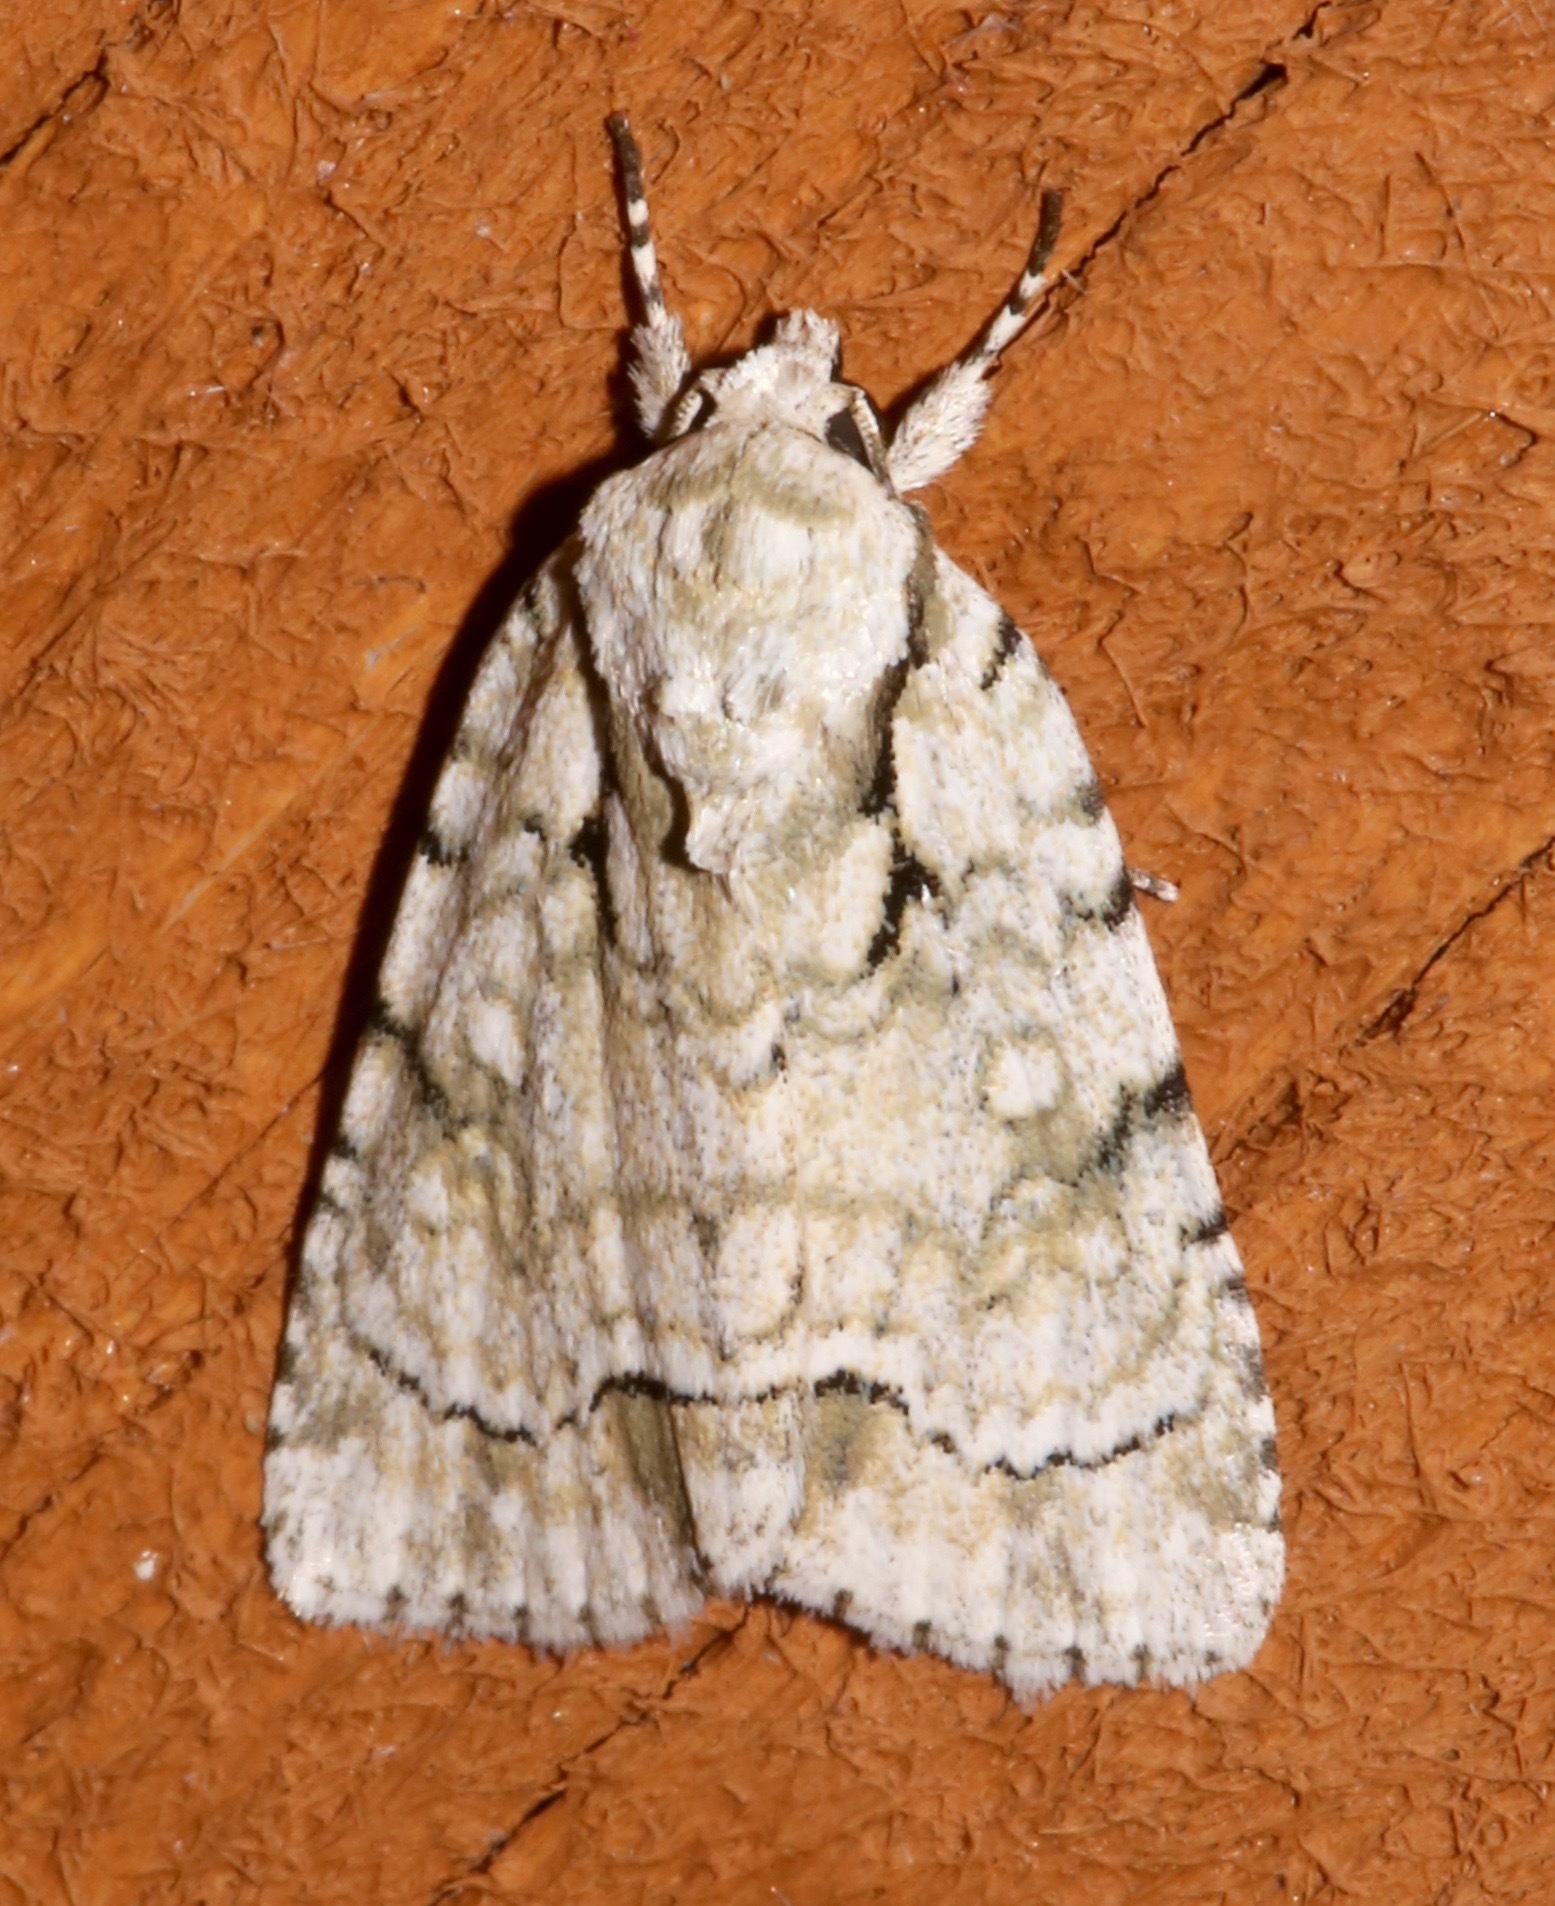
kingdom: Animalia
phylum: Arthropoda
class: Insecta
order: Lepidoptera
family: Noctuidae
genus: Acronicta
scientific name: Acronicta vinnula
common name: Delightful dagger
